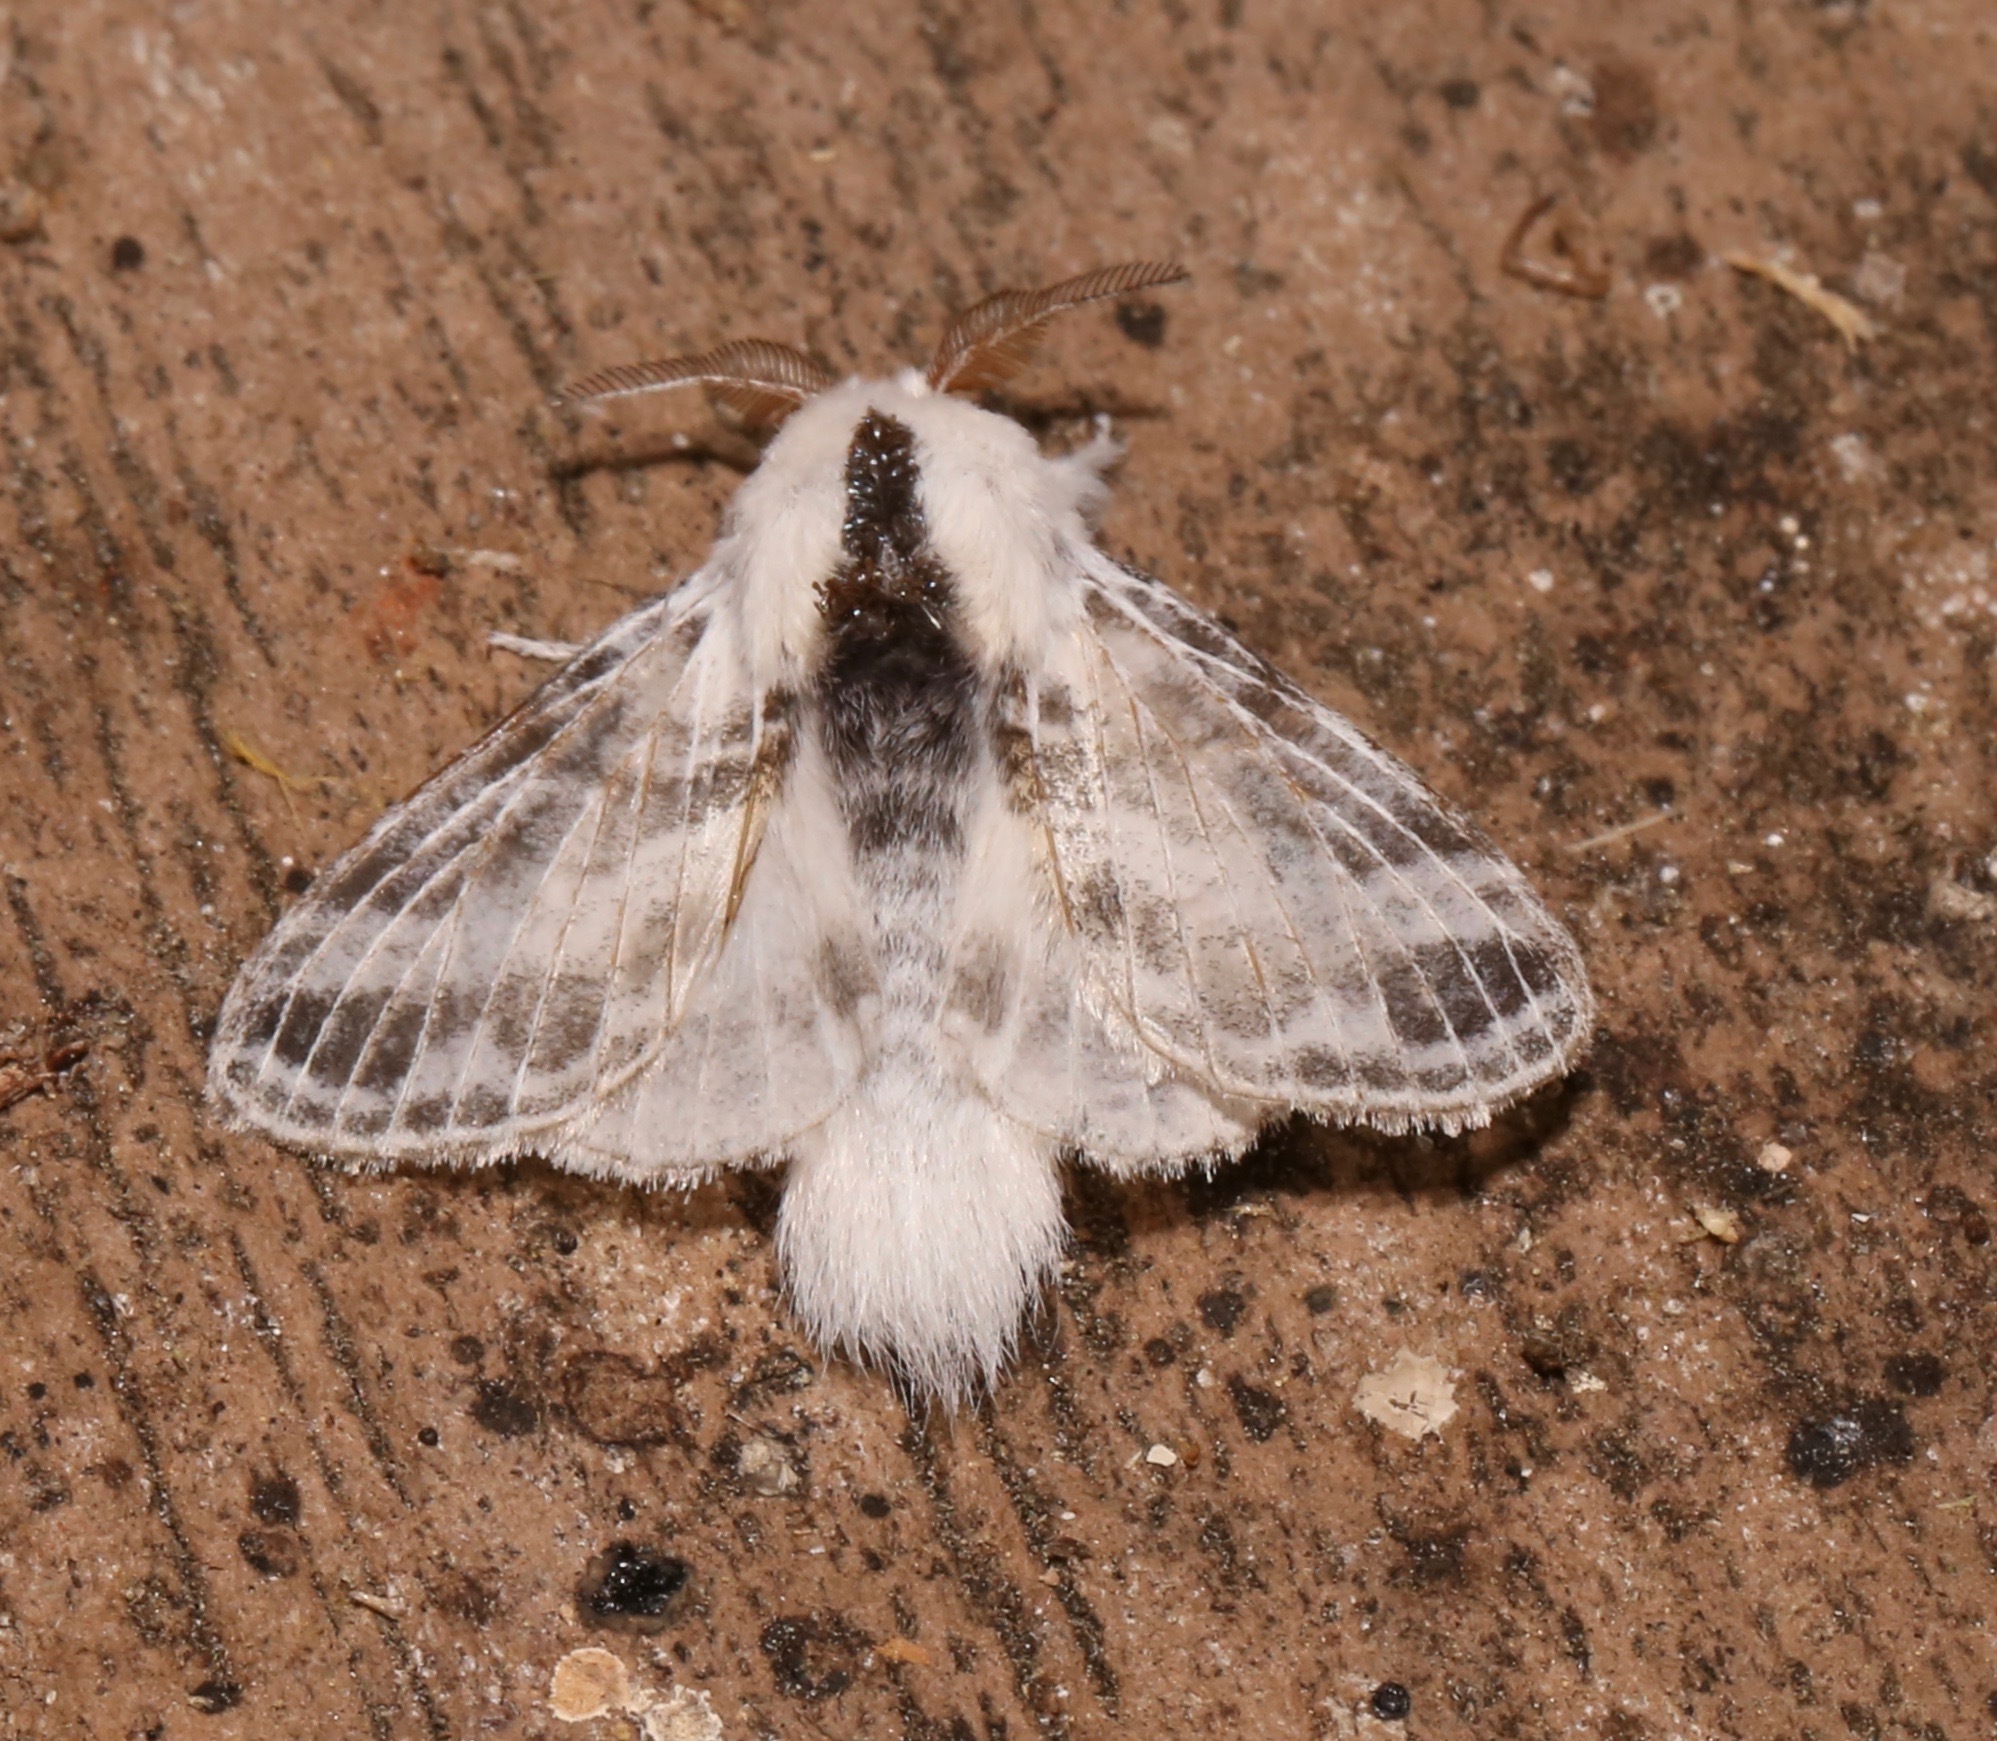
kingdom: Animalia
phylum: Arthropoda
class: Insecta
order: Lepidoptera
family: Lasiocampidae
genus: Tolype
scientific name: Tolype minta
